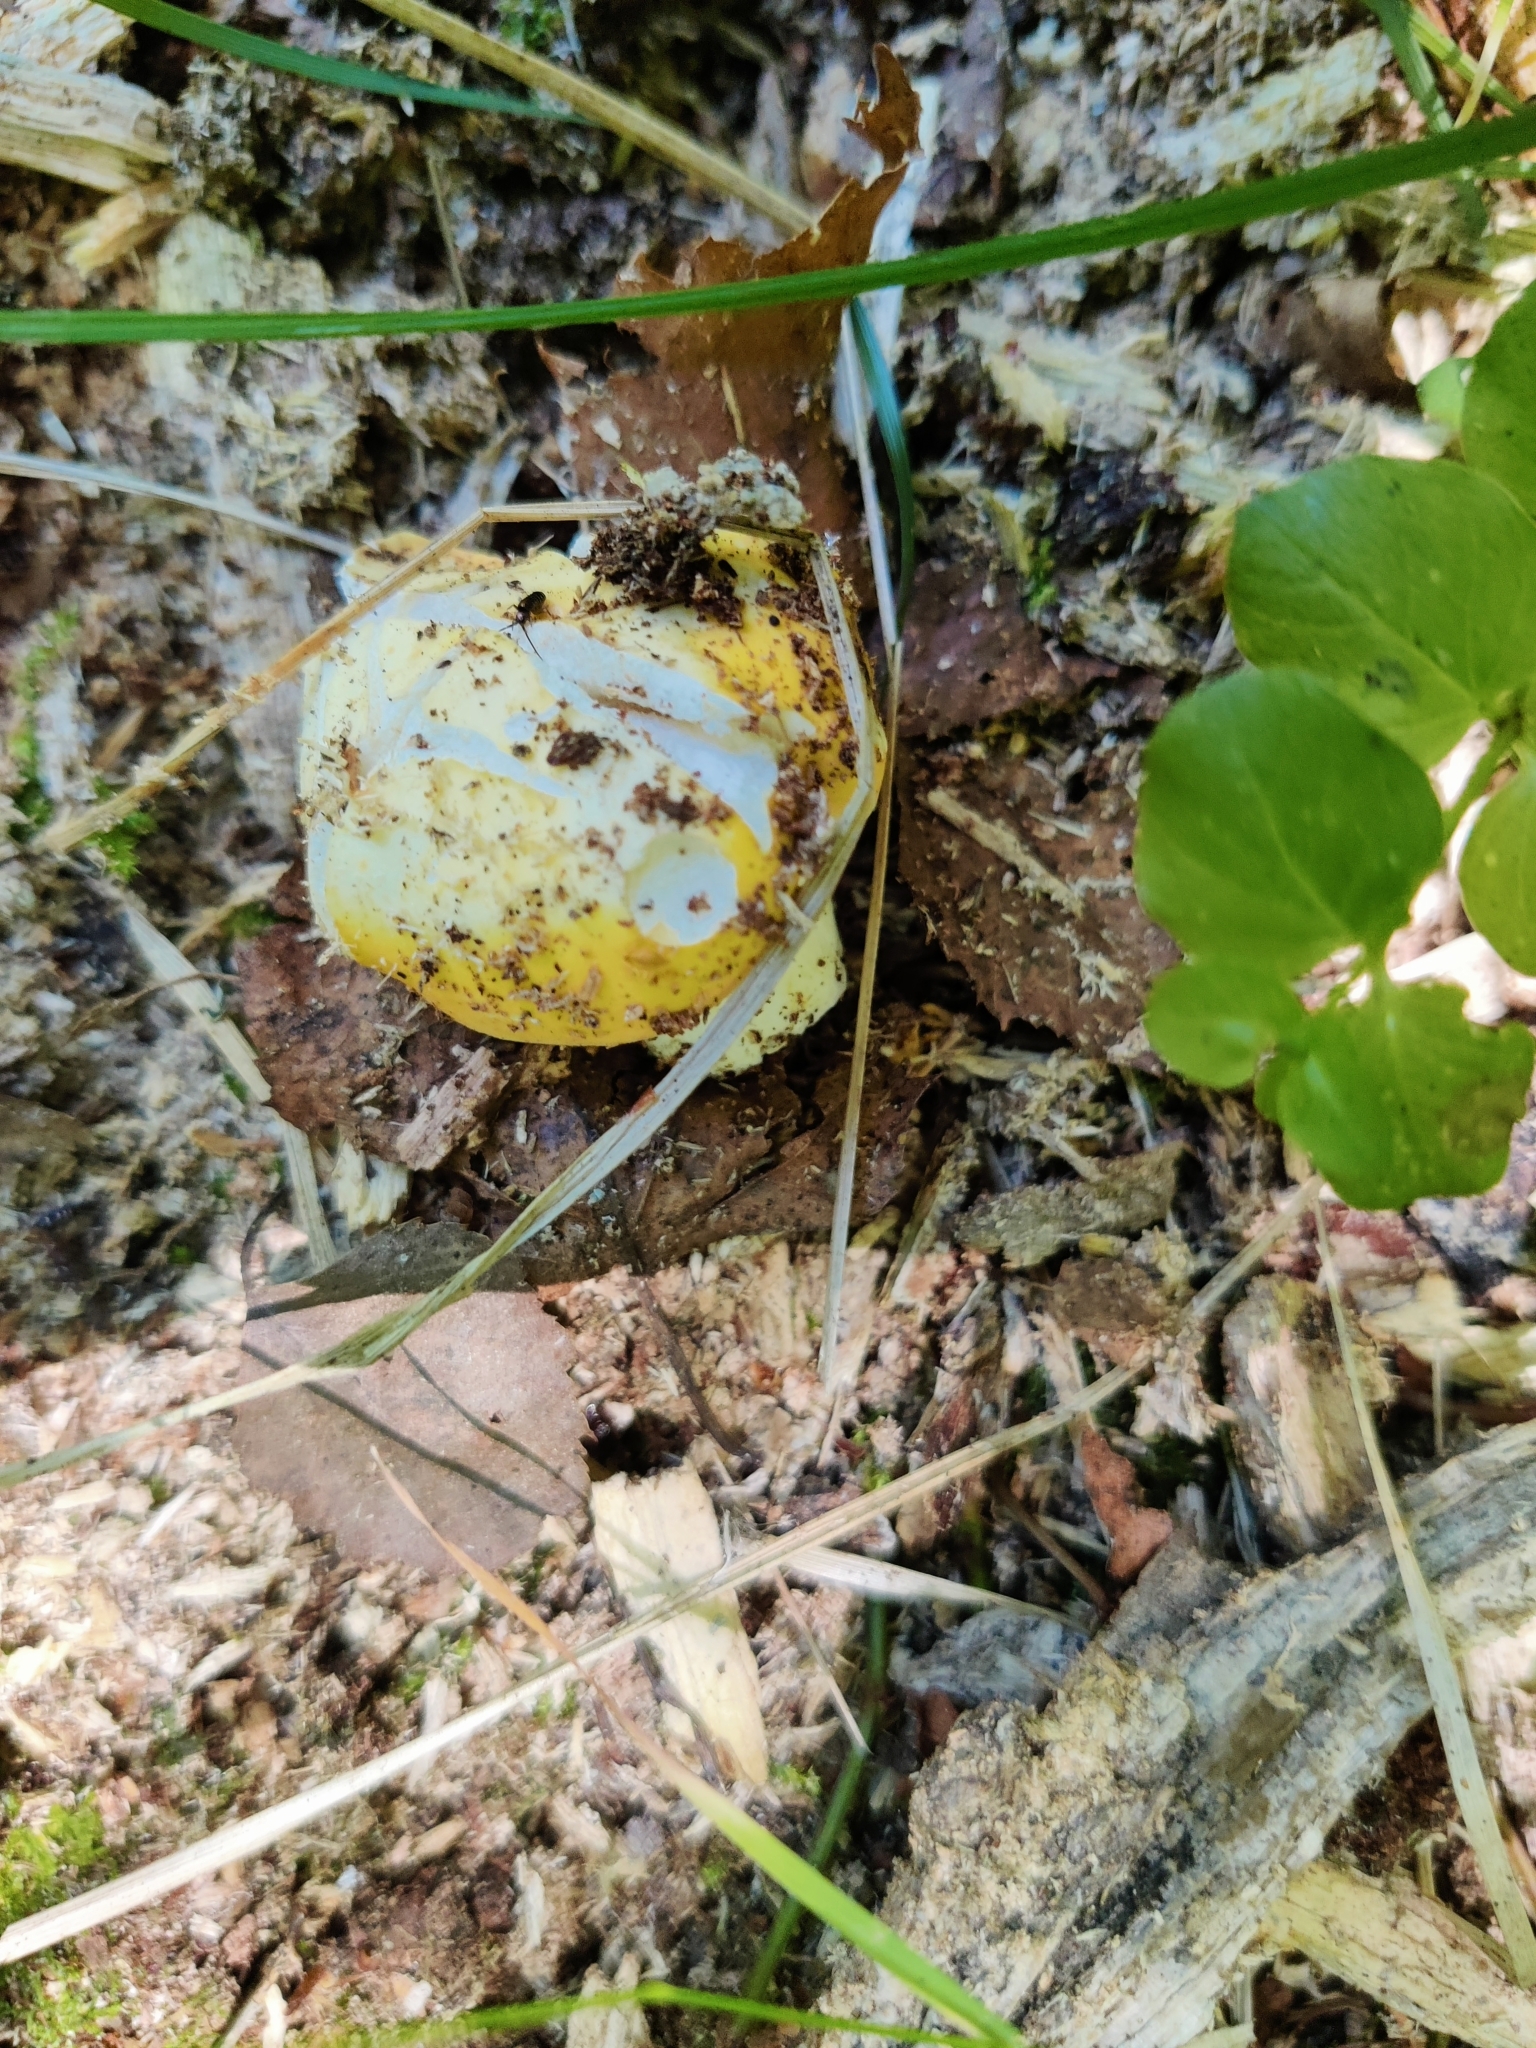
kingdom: Fungi
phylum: Basidiomycota
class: Agaricomycetes
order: Russulales
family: Russulaceae
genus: Russula
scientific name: Russula claroflava
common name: The yellow swamp brittlegill
